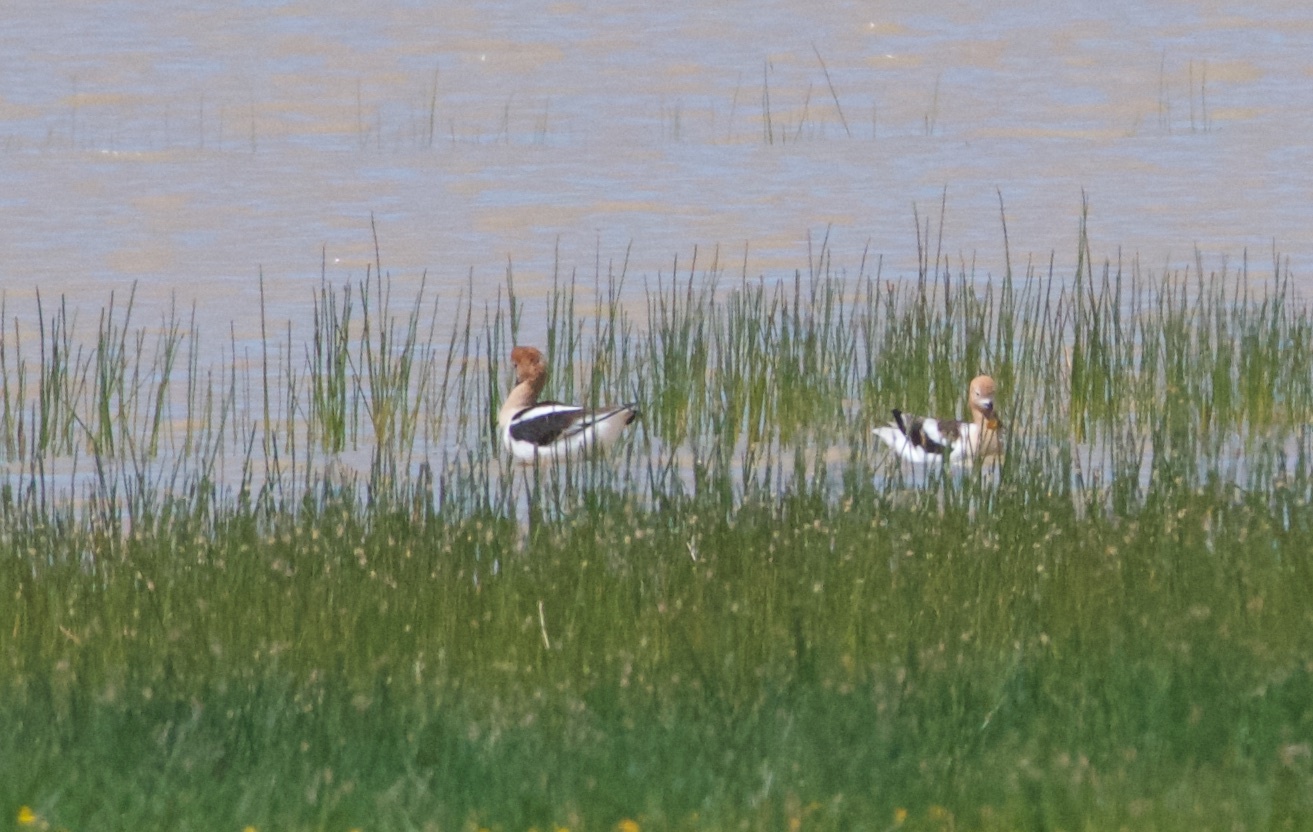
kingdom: Animalia
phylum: Chordata
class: Aves
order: Charadriiformes
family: Recurvirostridae
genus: Recurvirostra
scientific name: Recurvirostra americana
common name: American avocet
